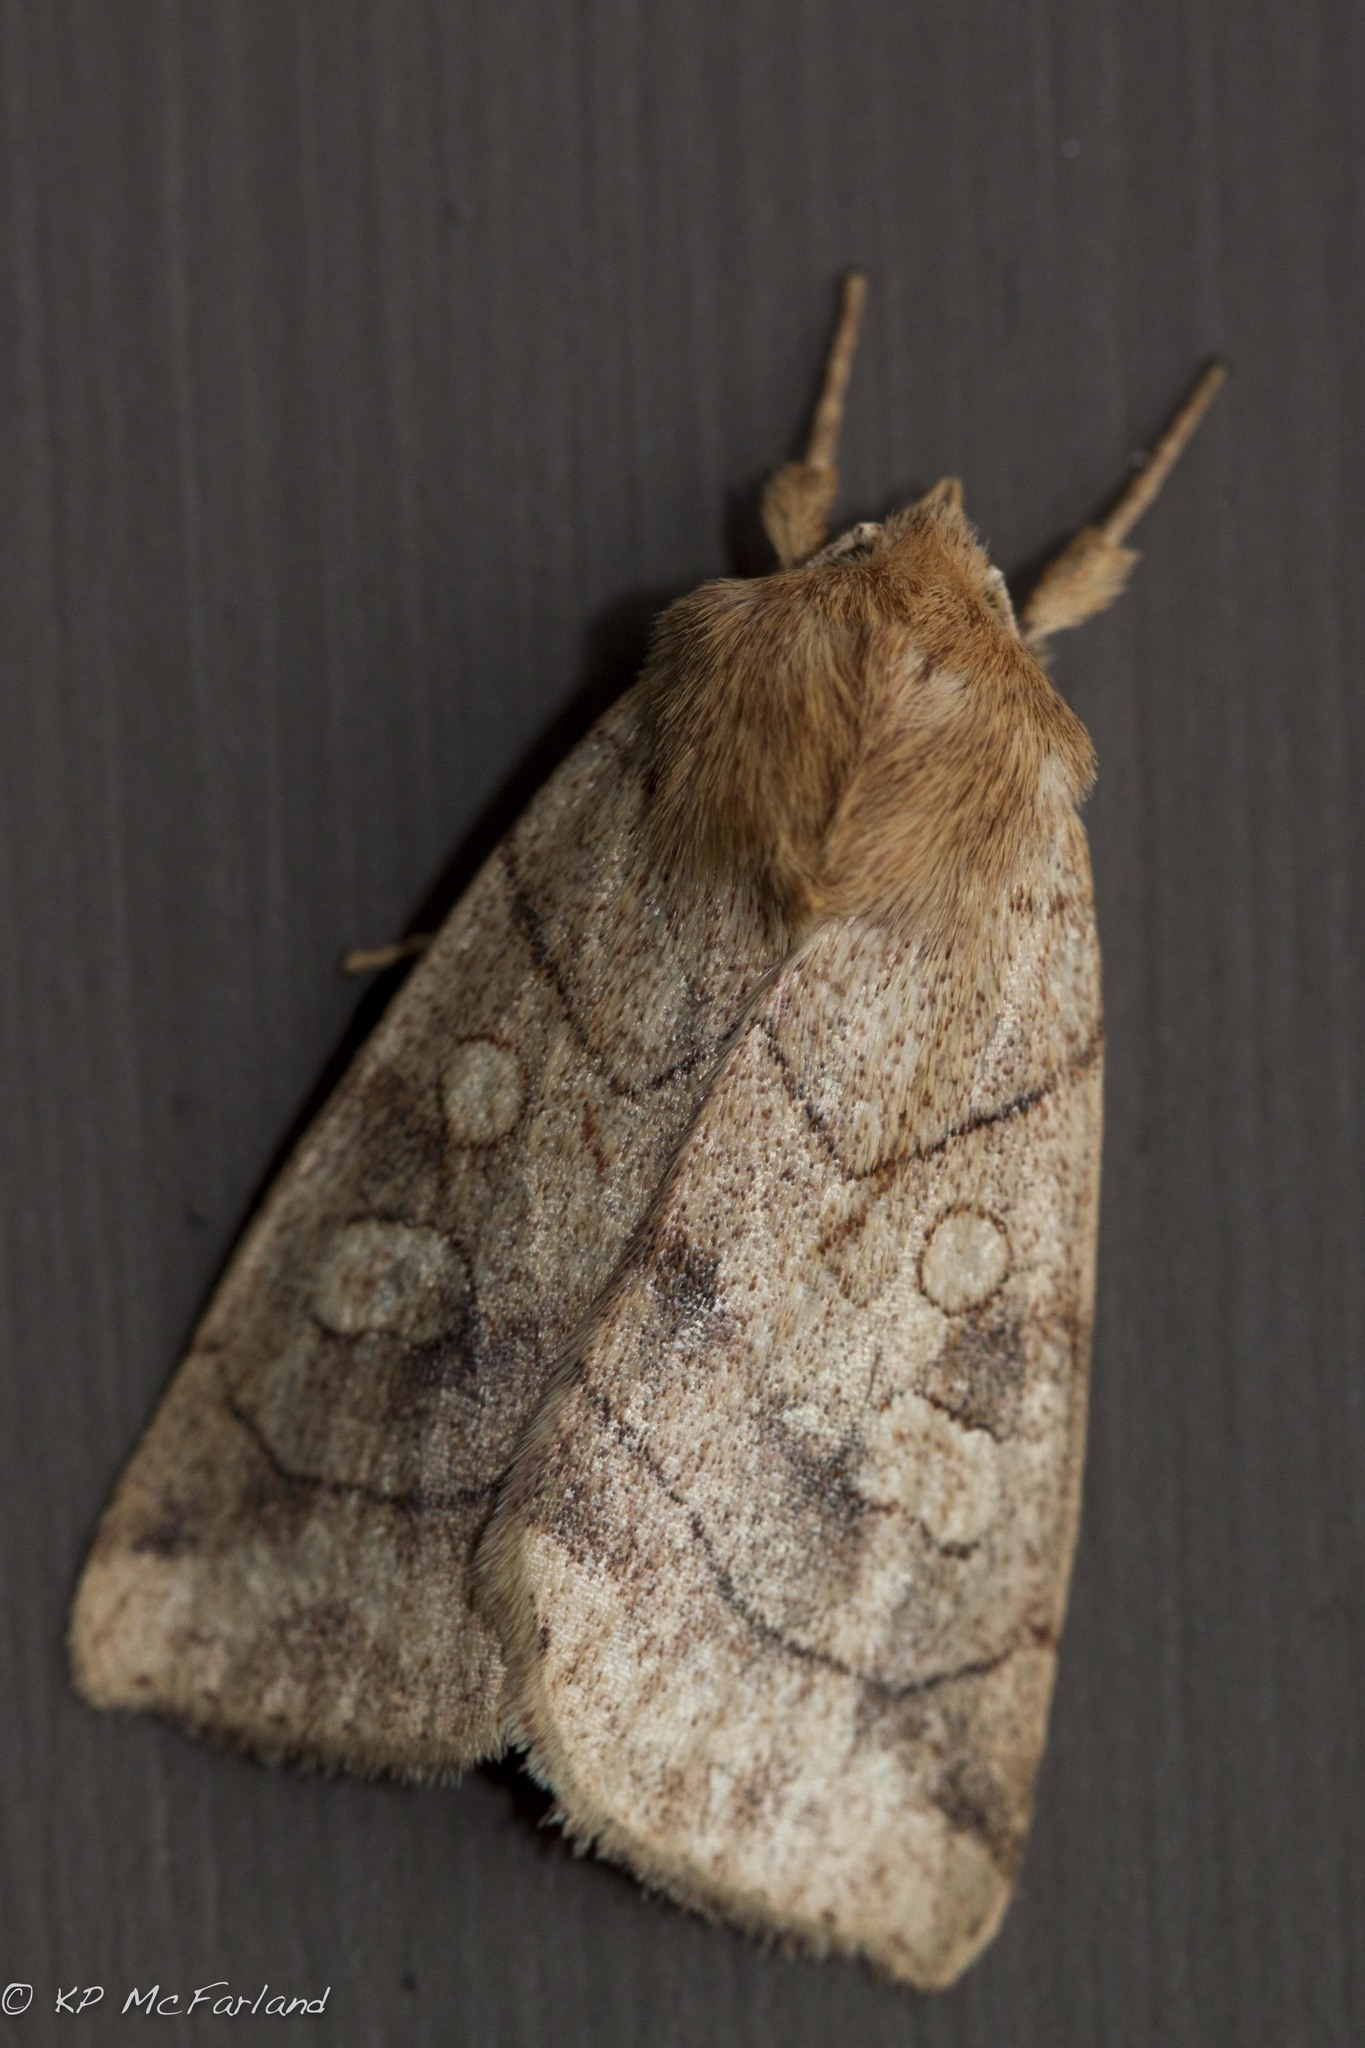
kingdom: Animalia
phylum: Arthropoda
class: Insecta
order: Lepidoptera
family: Noctuidae
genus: Enargia
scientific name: Enargia decolor
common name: Aspen twoleaf tier moth
